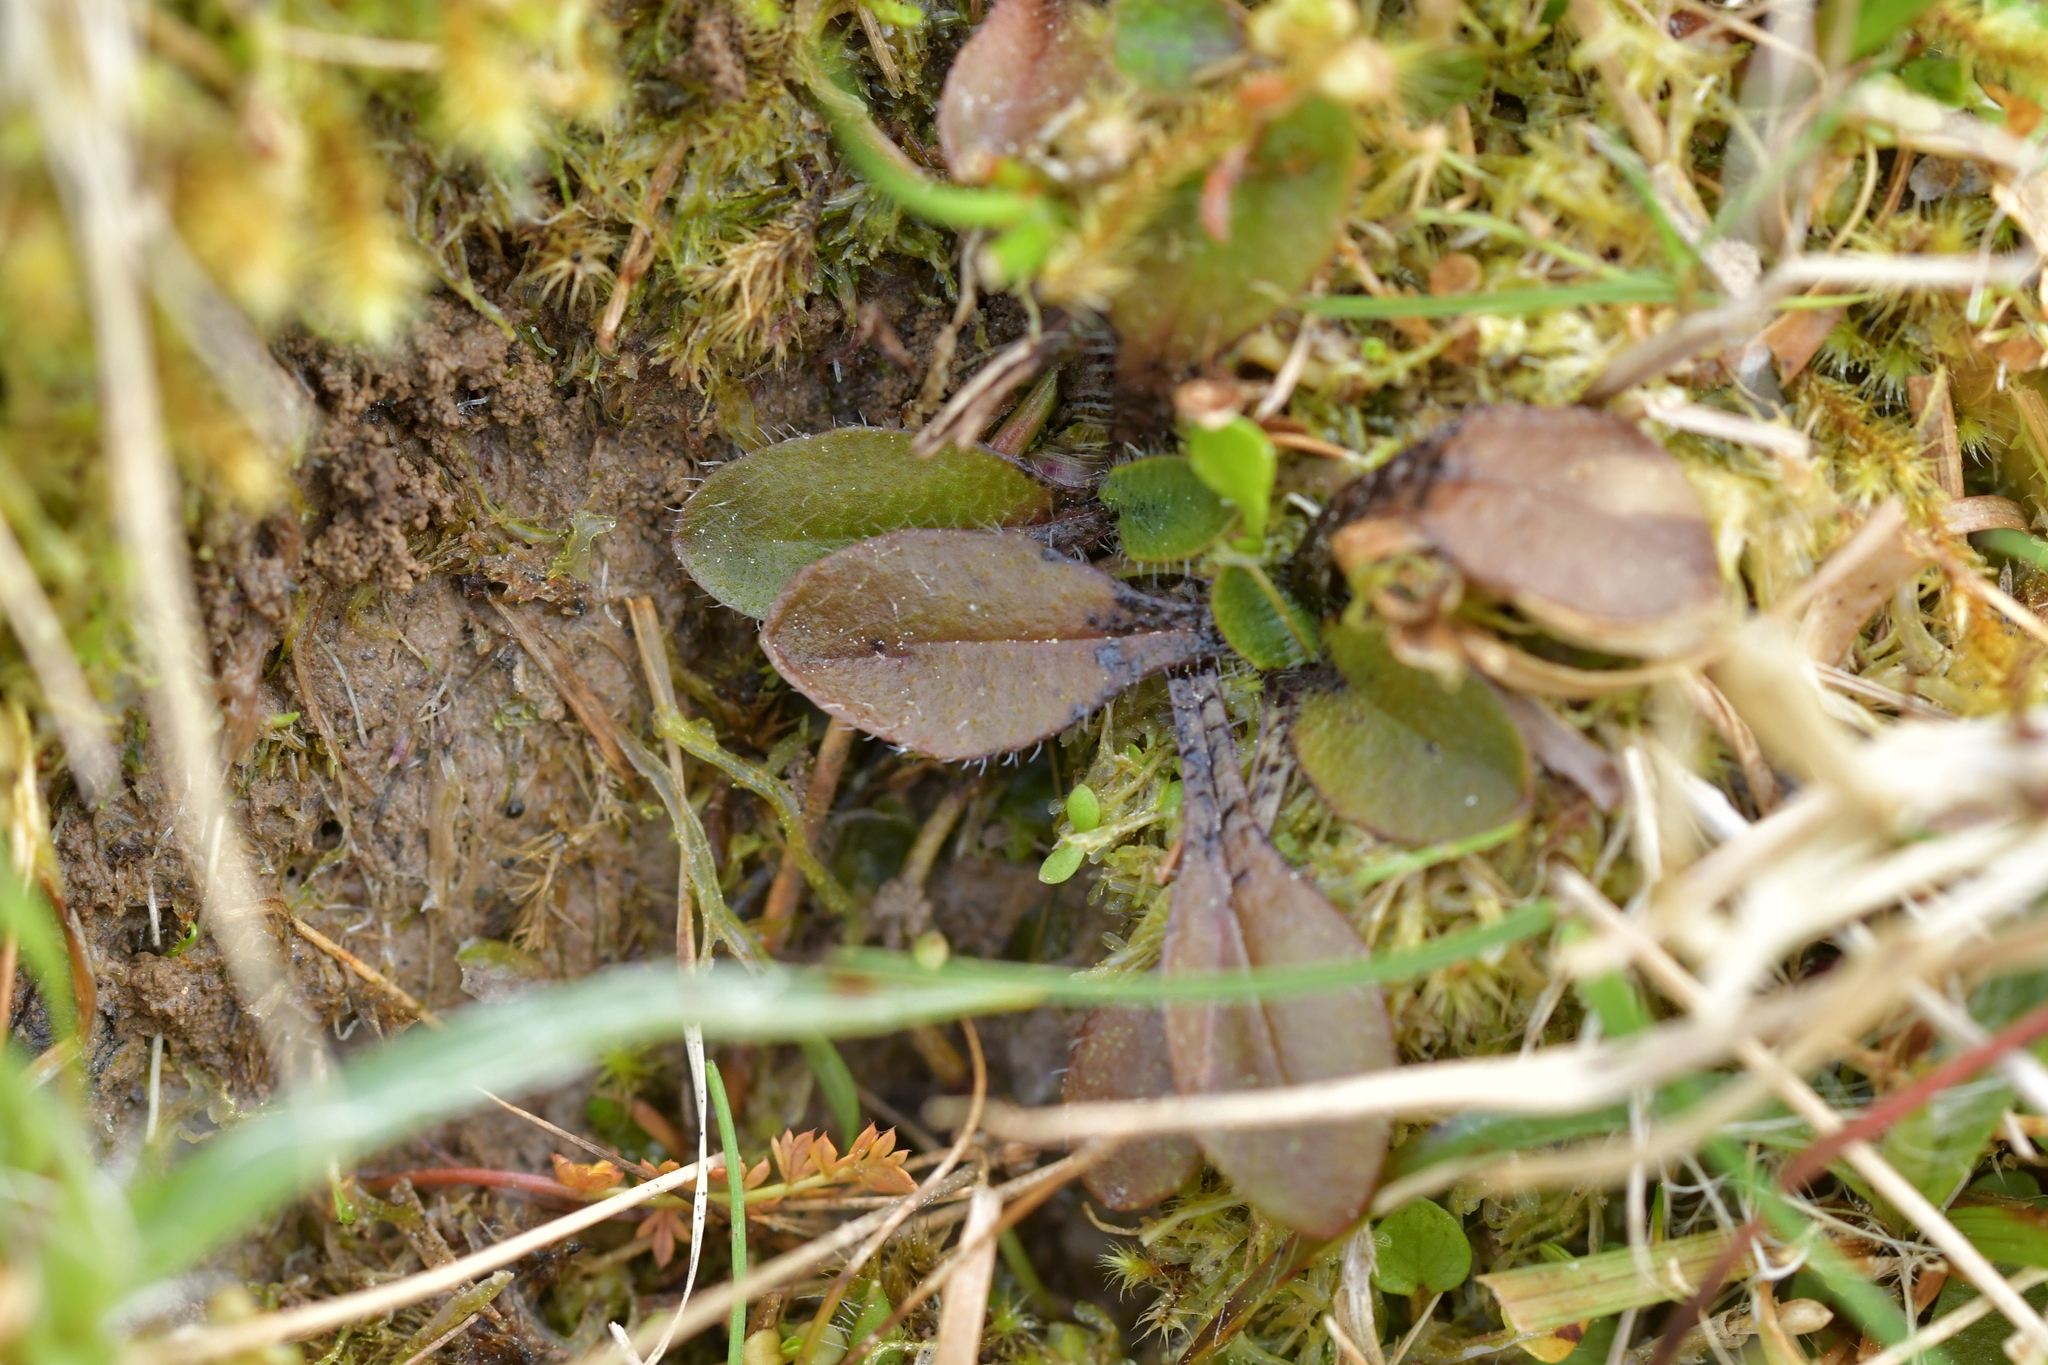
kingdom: Plantae
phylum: Tracheophyta
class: Magnoliopsida
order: Lamiales
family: Plantaginaceae
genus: Plantago
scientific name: Plantago raoulii
